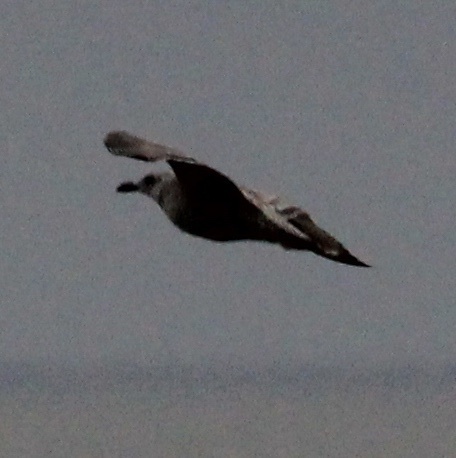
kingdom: Animalia
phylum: Chordata
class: Aves
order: Charadriiformes
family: Laridae
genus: Larus
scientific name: Larus smithsonianus
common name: American herring gull
